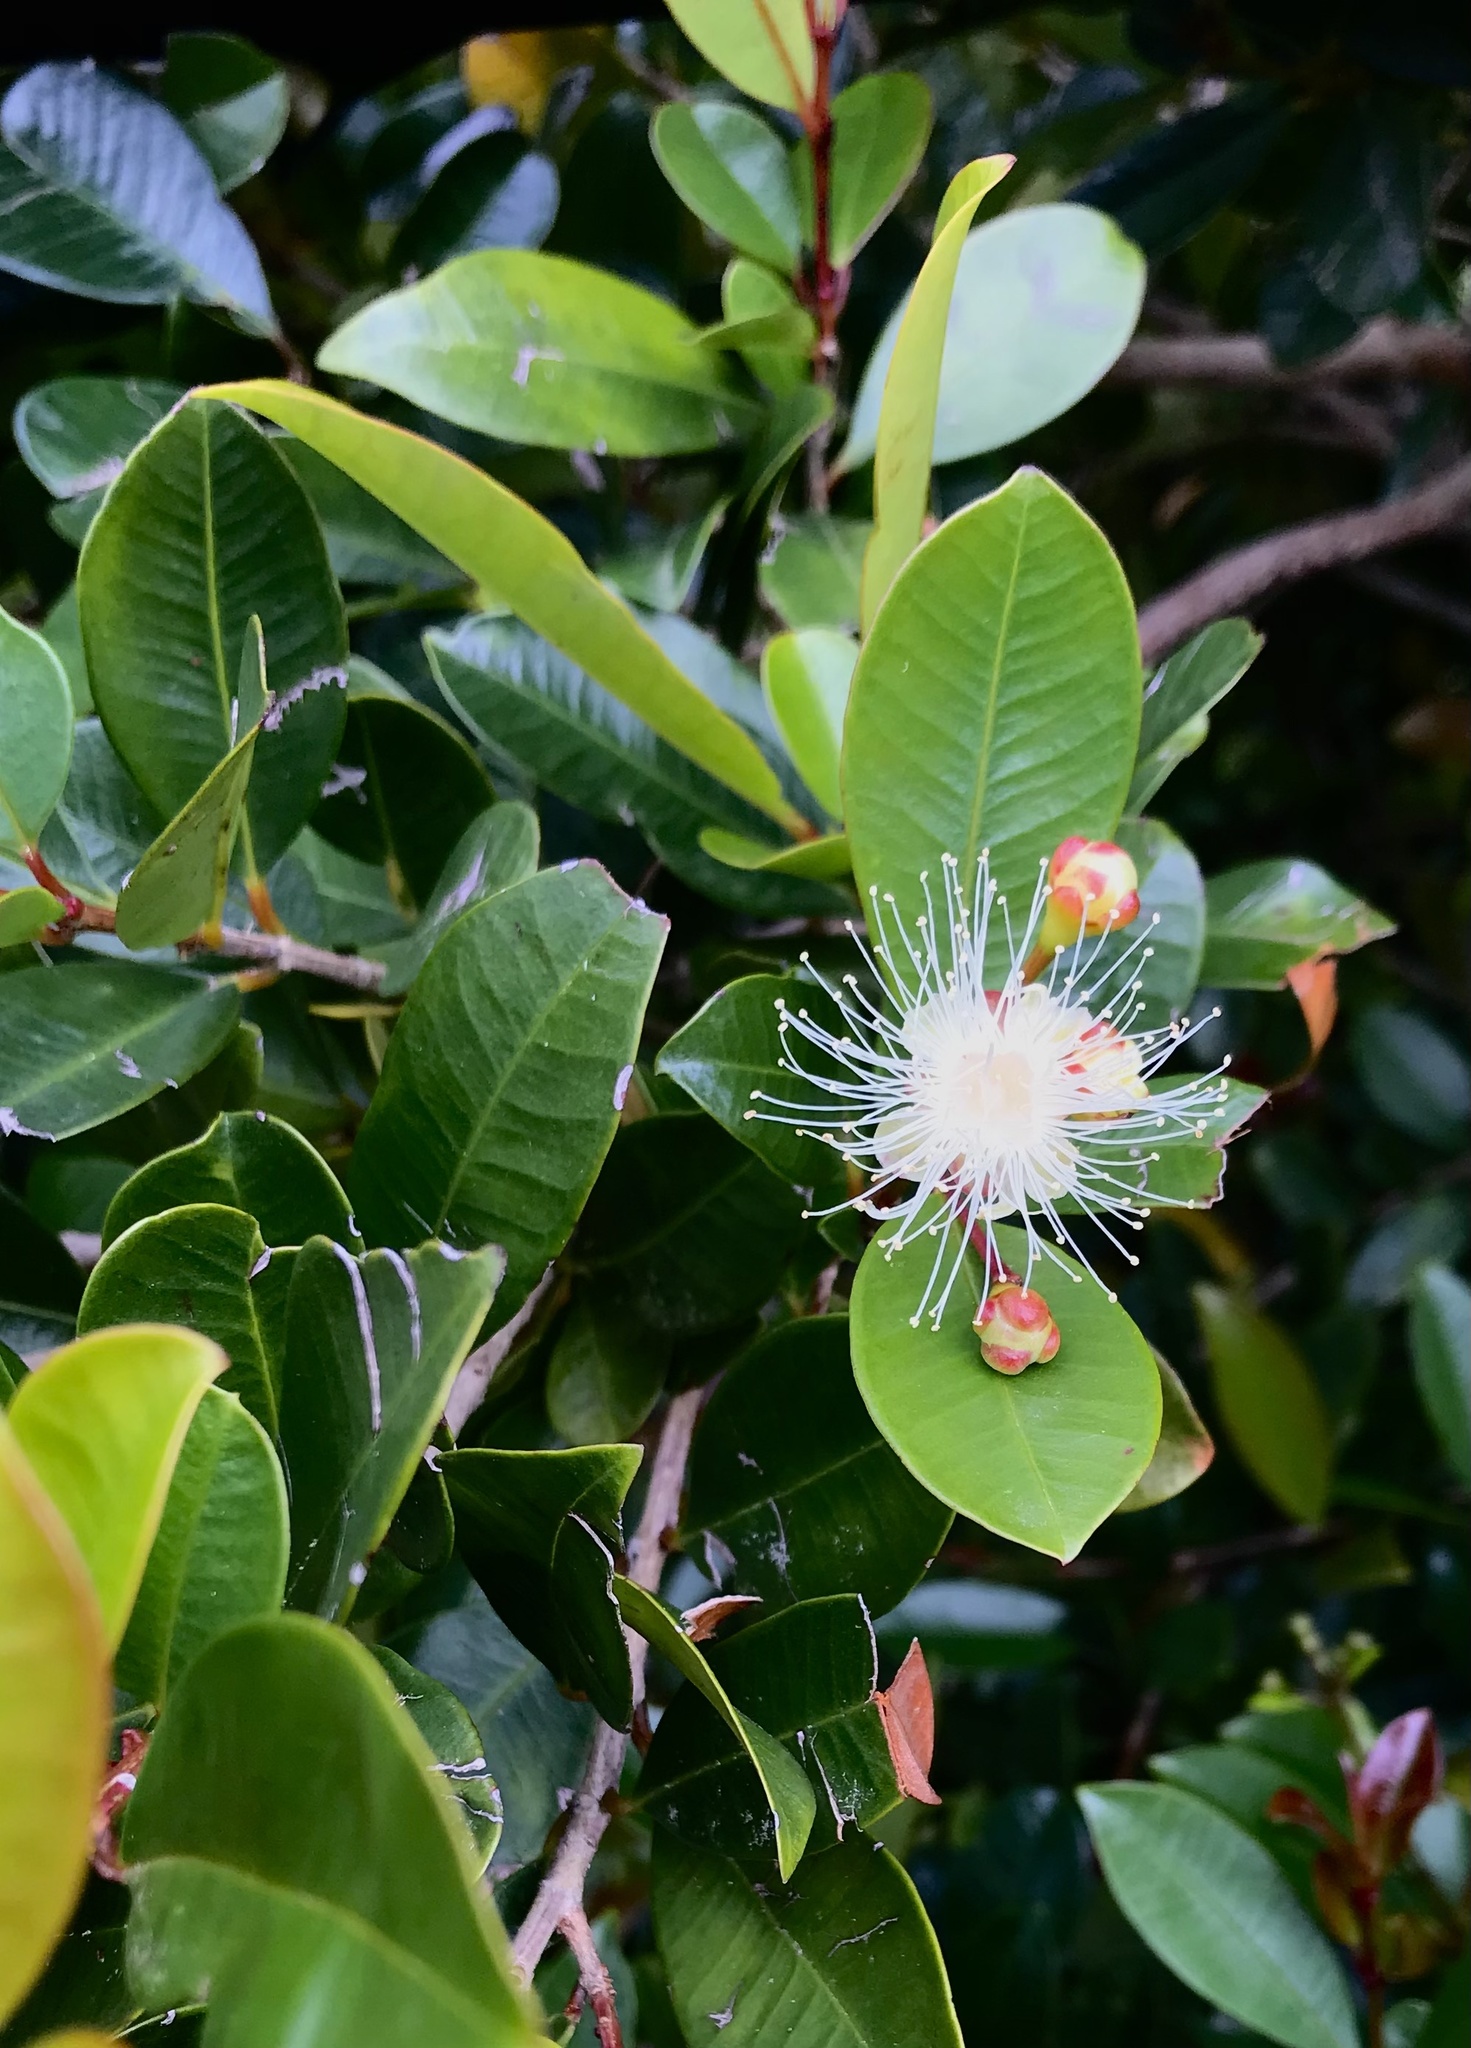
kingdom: Plantae
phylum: Tracheophyta
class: Magnoliopsida
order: Myrtales
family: Myrtaceae
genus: Syzygium
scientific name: Syzygium australe
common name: Australian brush-cherry
